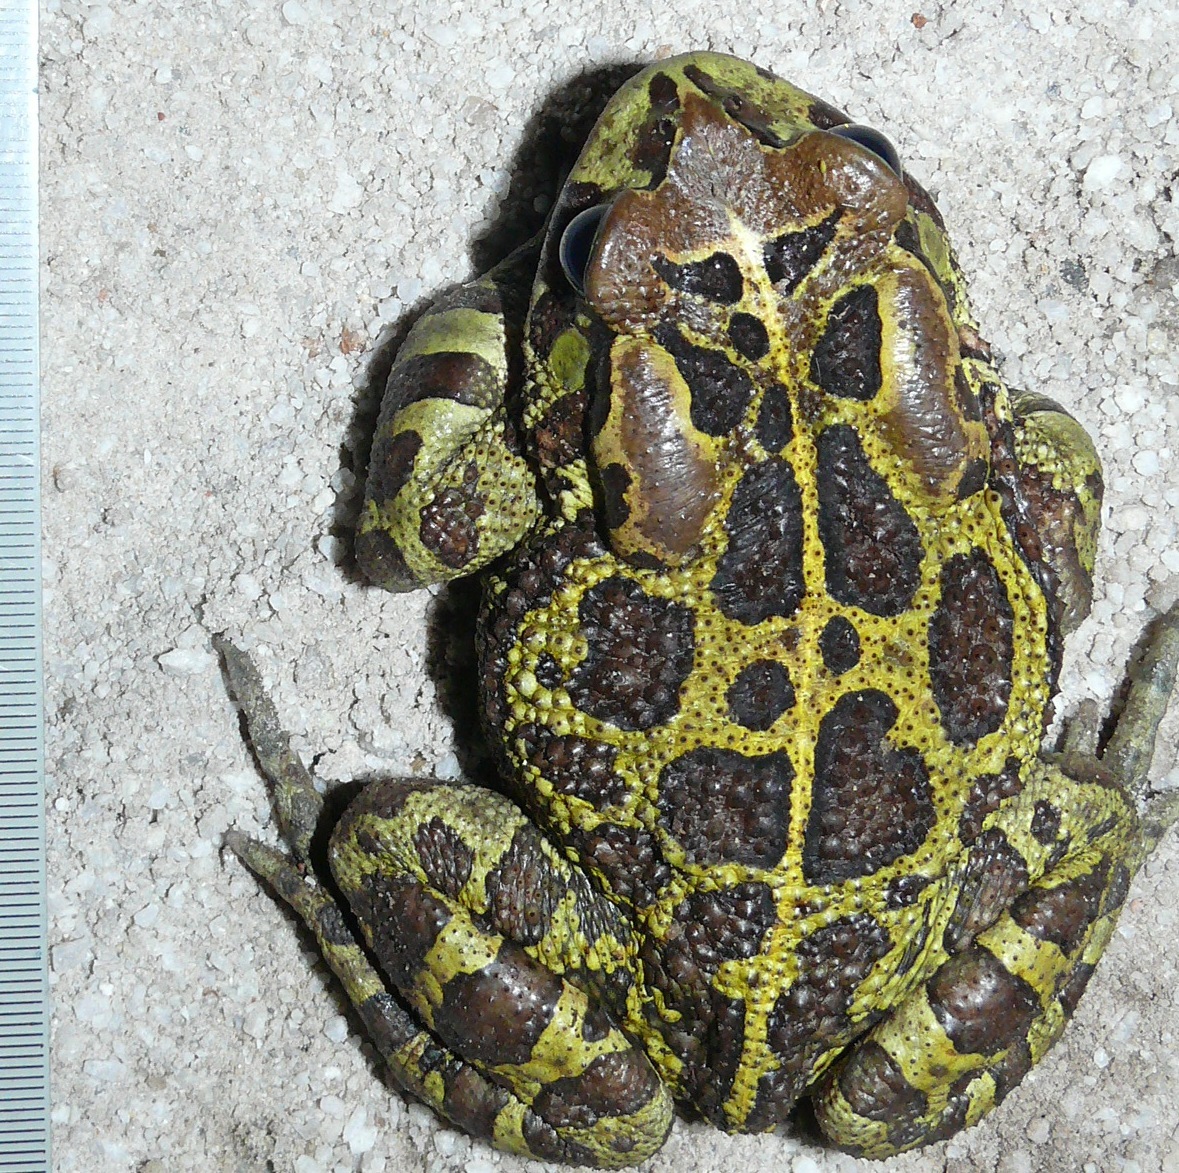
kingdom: Animalia
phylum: Chordata
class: Amphibia
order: Anura
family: Bufonidae
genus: Sclerophrys
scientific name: Sclerophrys pantherina
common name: Panther toad
